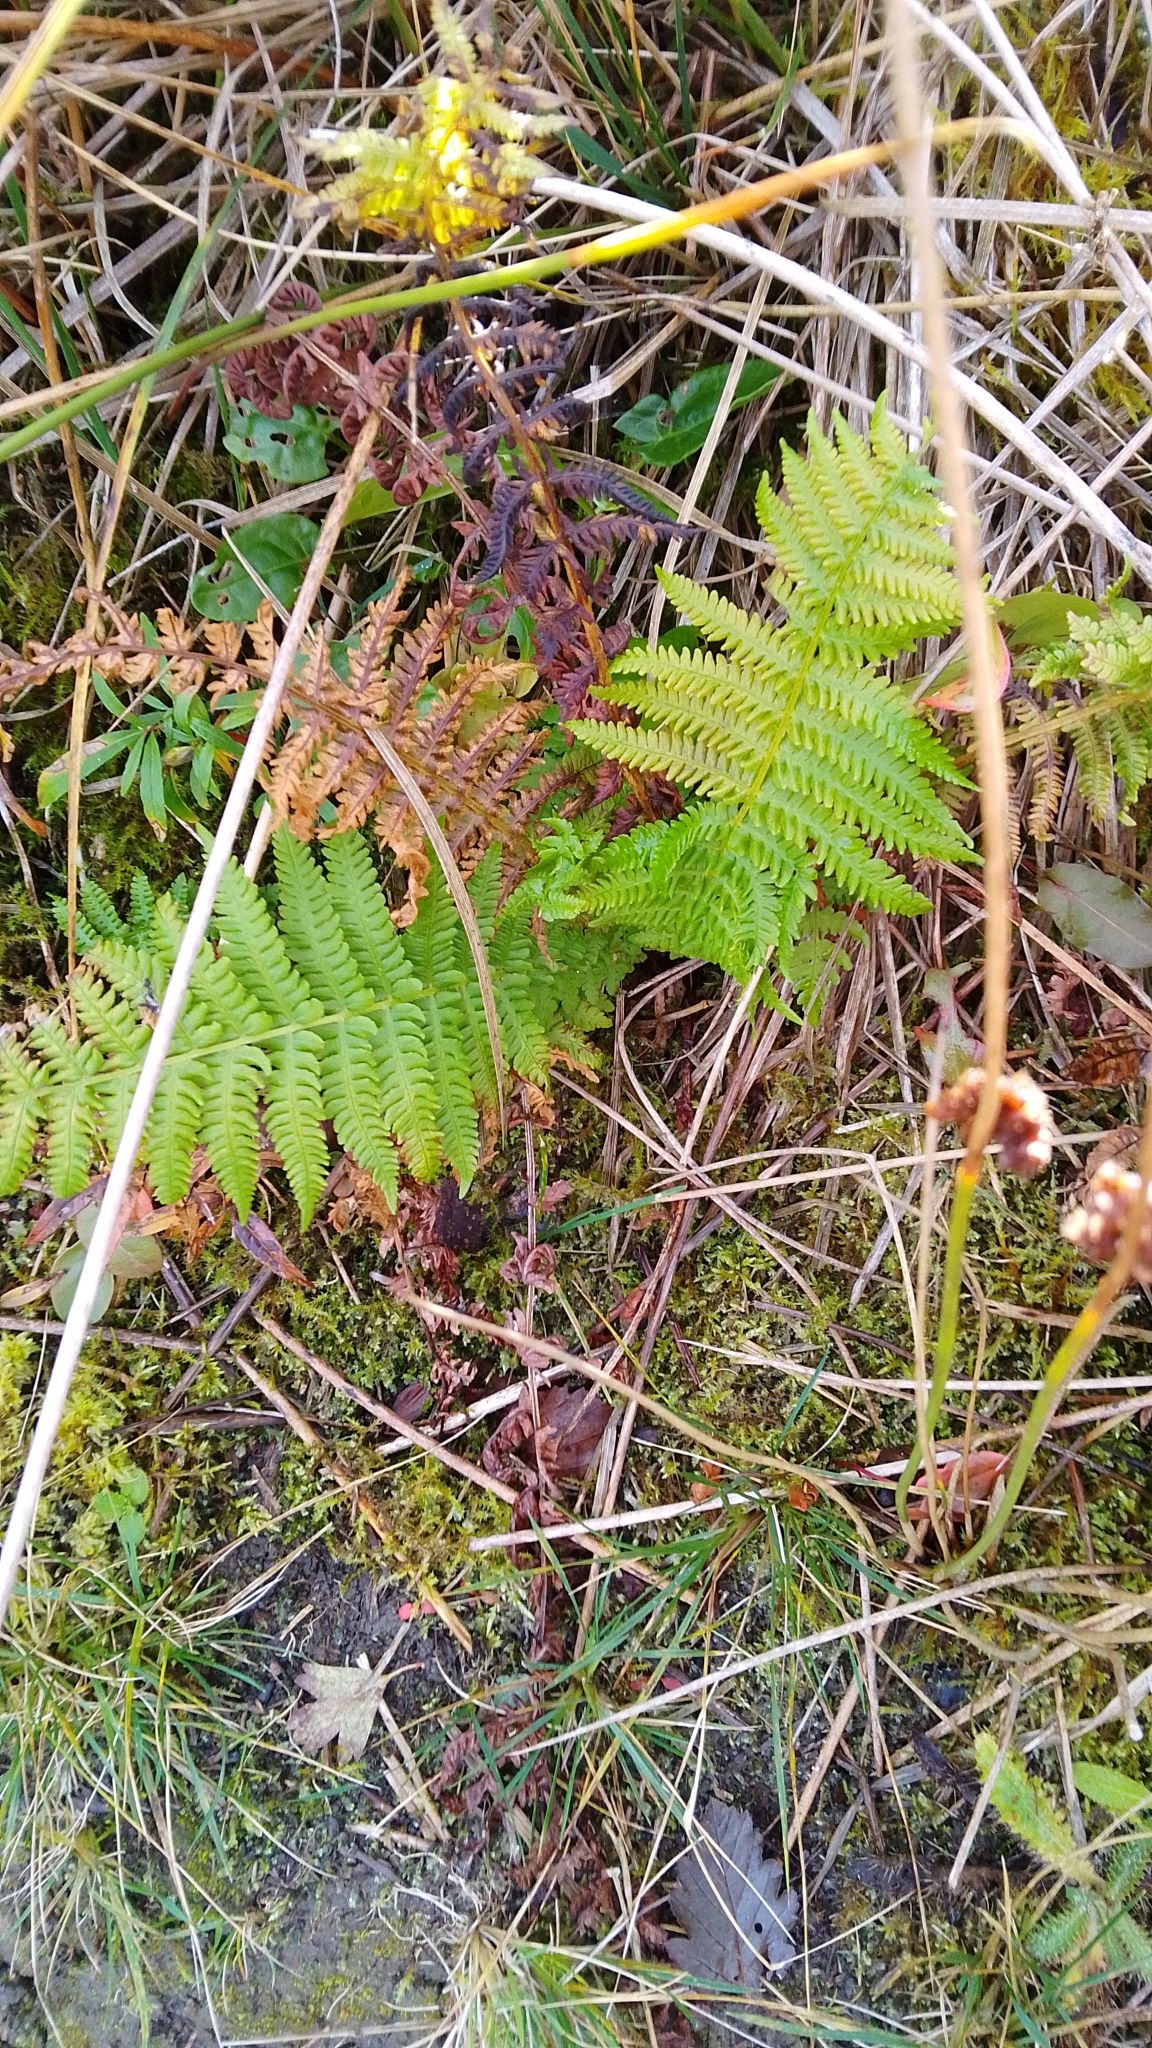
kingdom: Plantae
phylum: Tracheophyta
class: Polypodiopsida
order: Polypodiales
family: Thelypteridaceae
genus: Oreopteris
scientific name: Oreopteris limbosperma
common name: Lemon-scented fern
